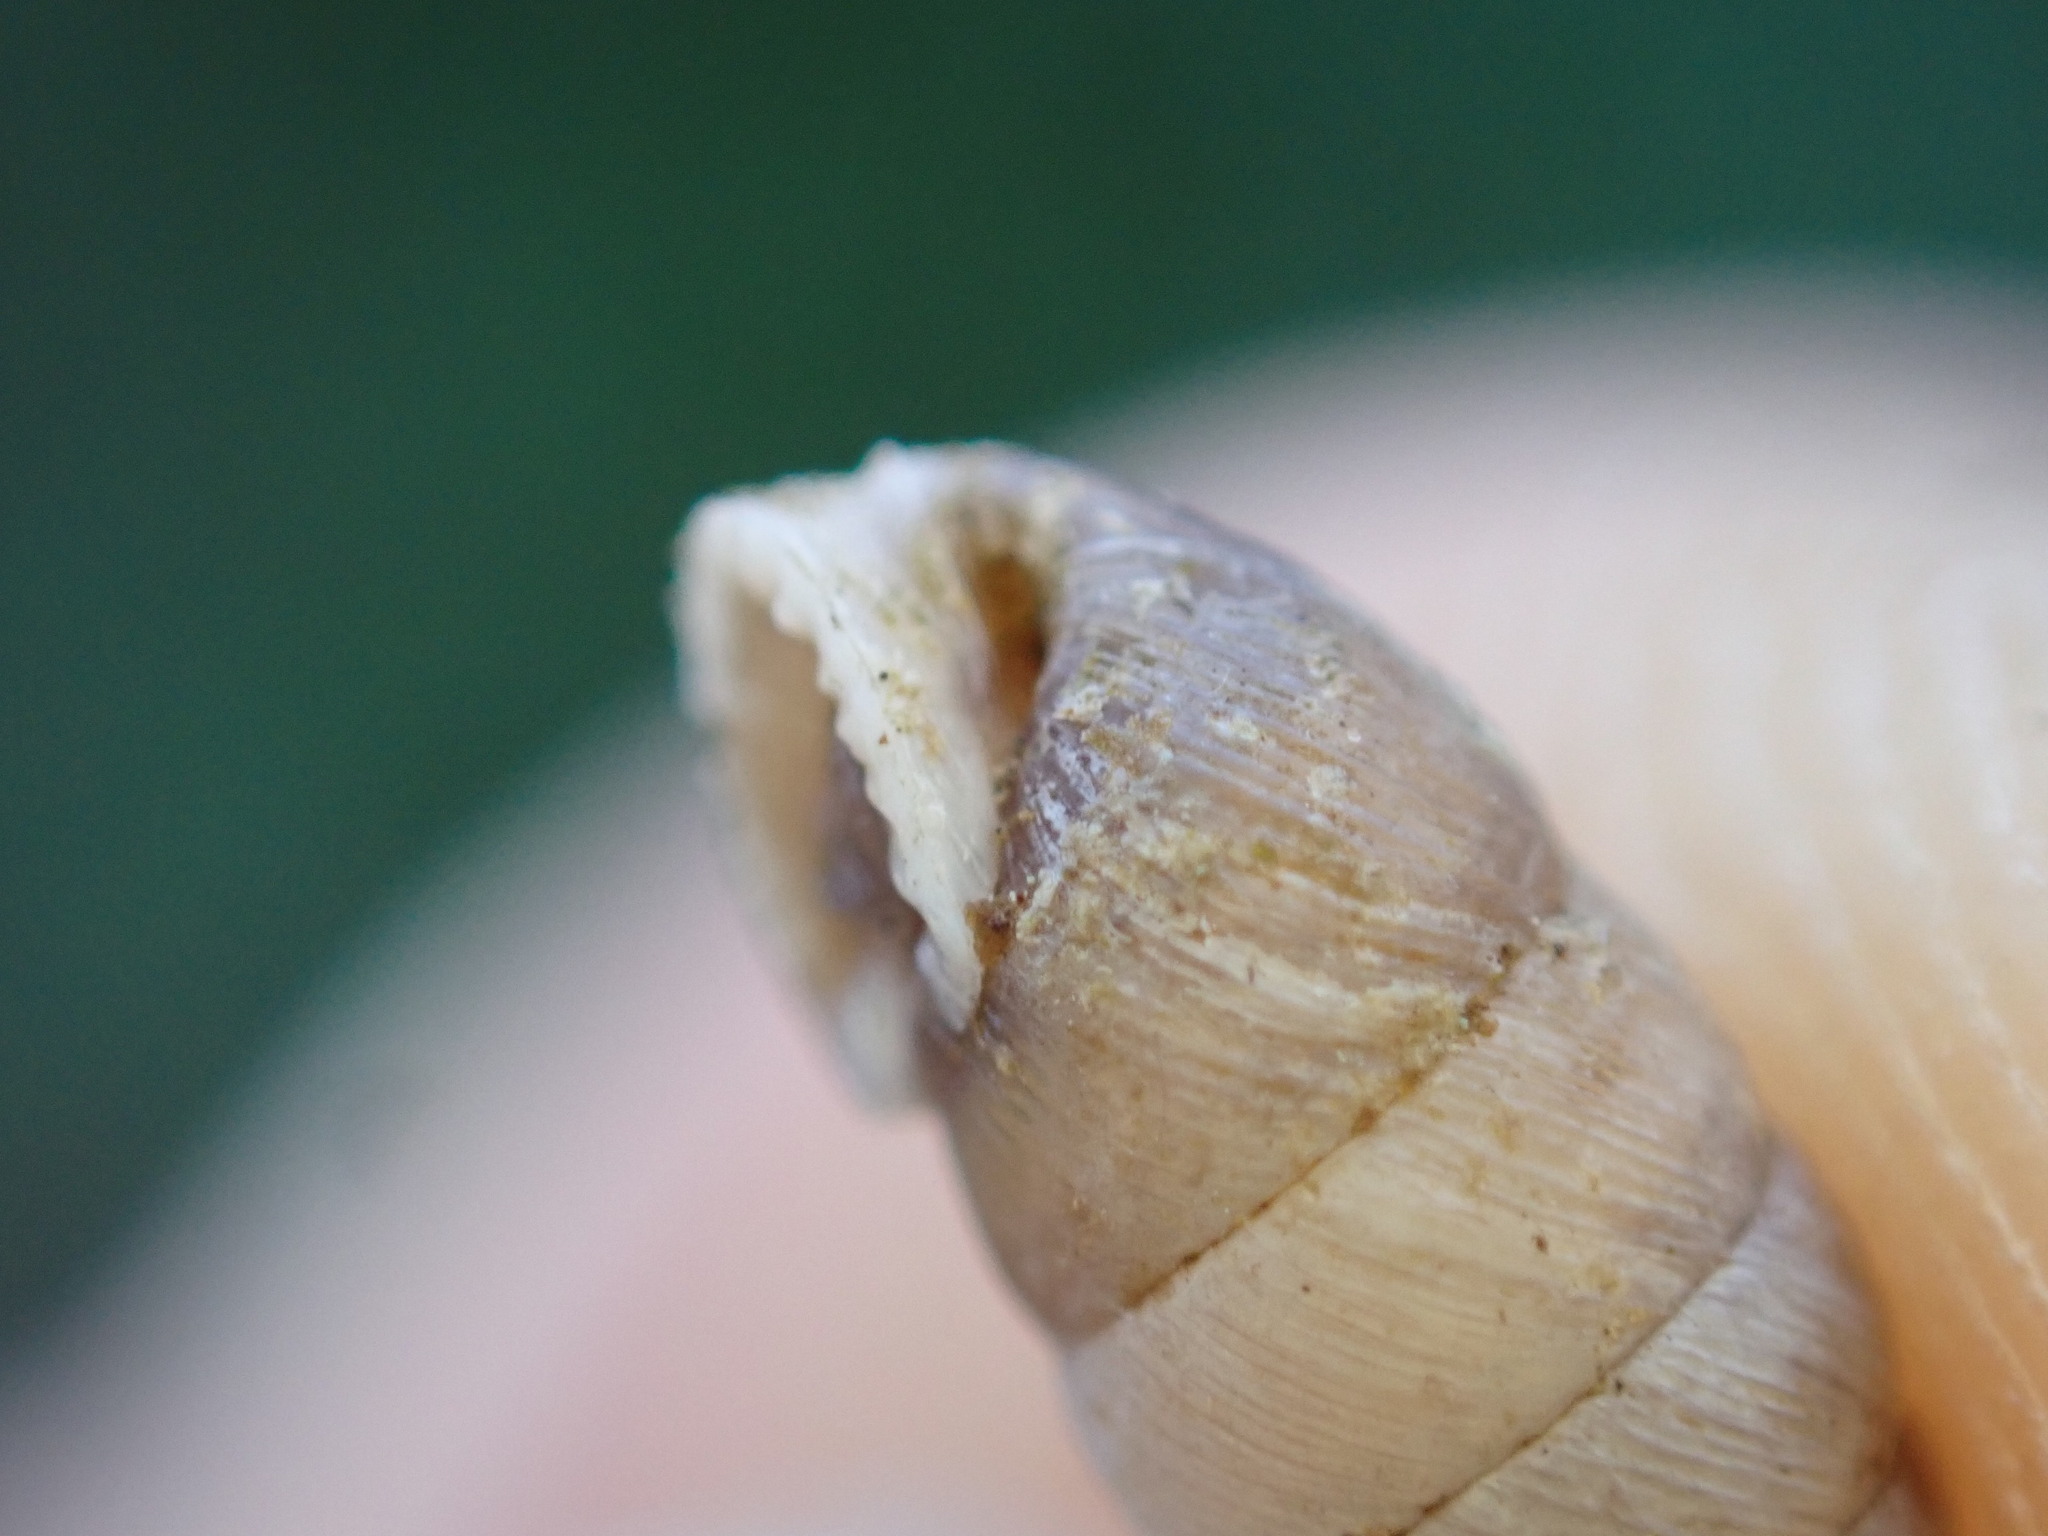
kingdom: Animalia
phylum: Mollusca
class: Gastropoda
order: Stylommatophora
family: Chondrinidae
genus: Abida
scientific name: Abida polyodon
